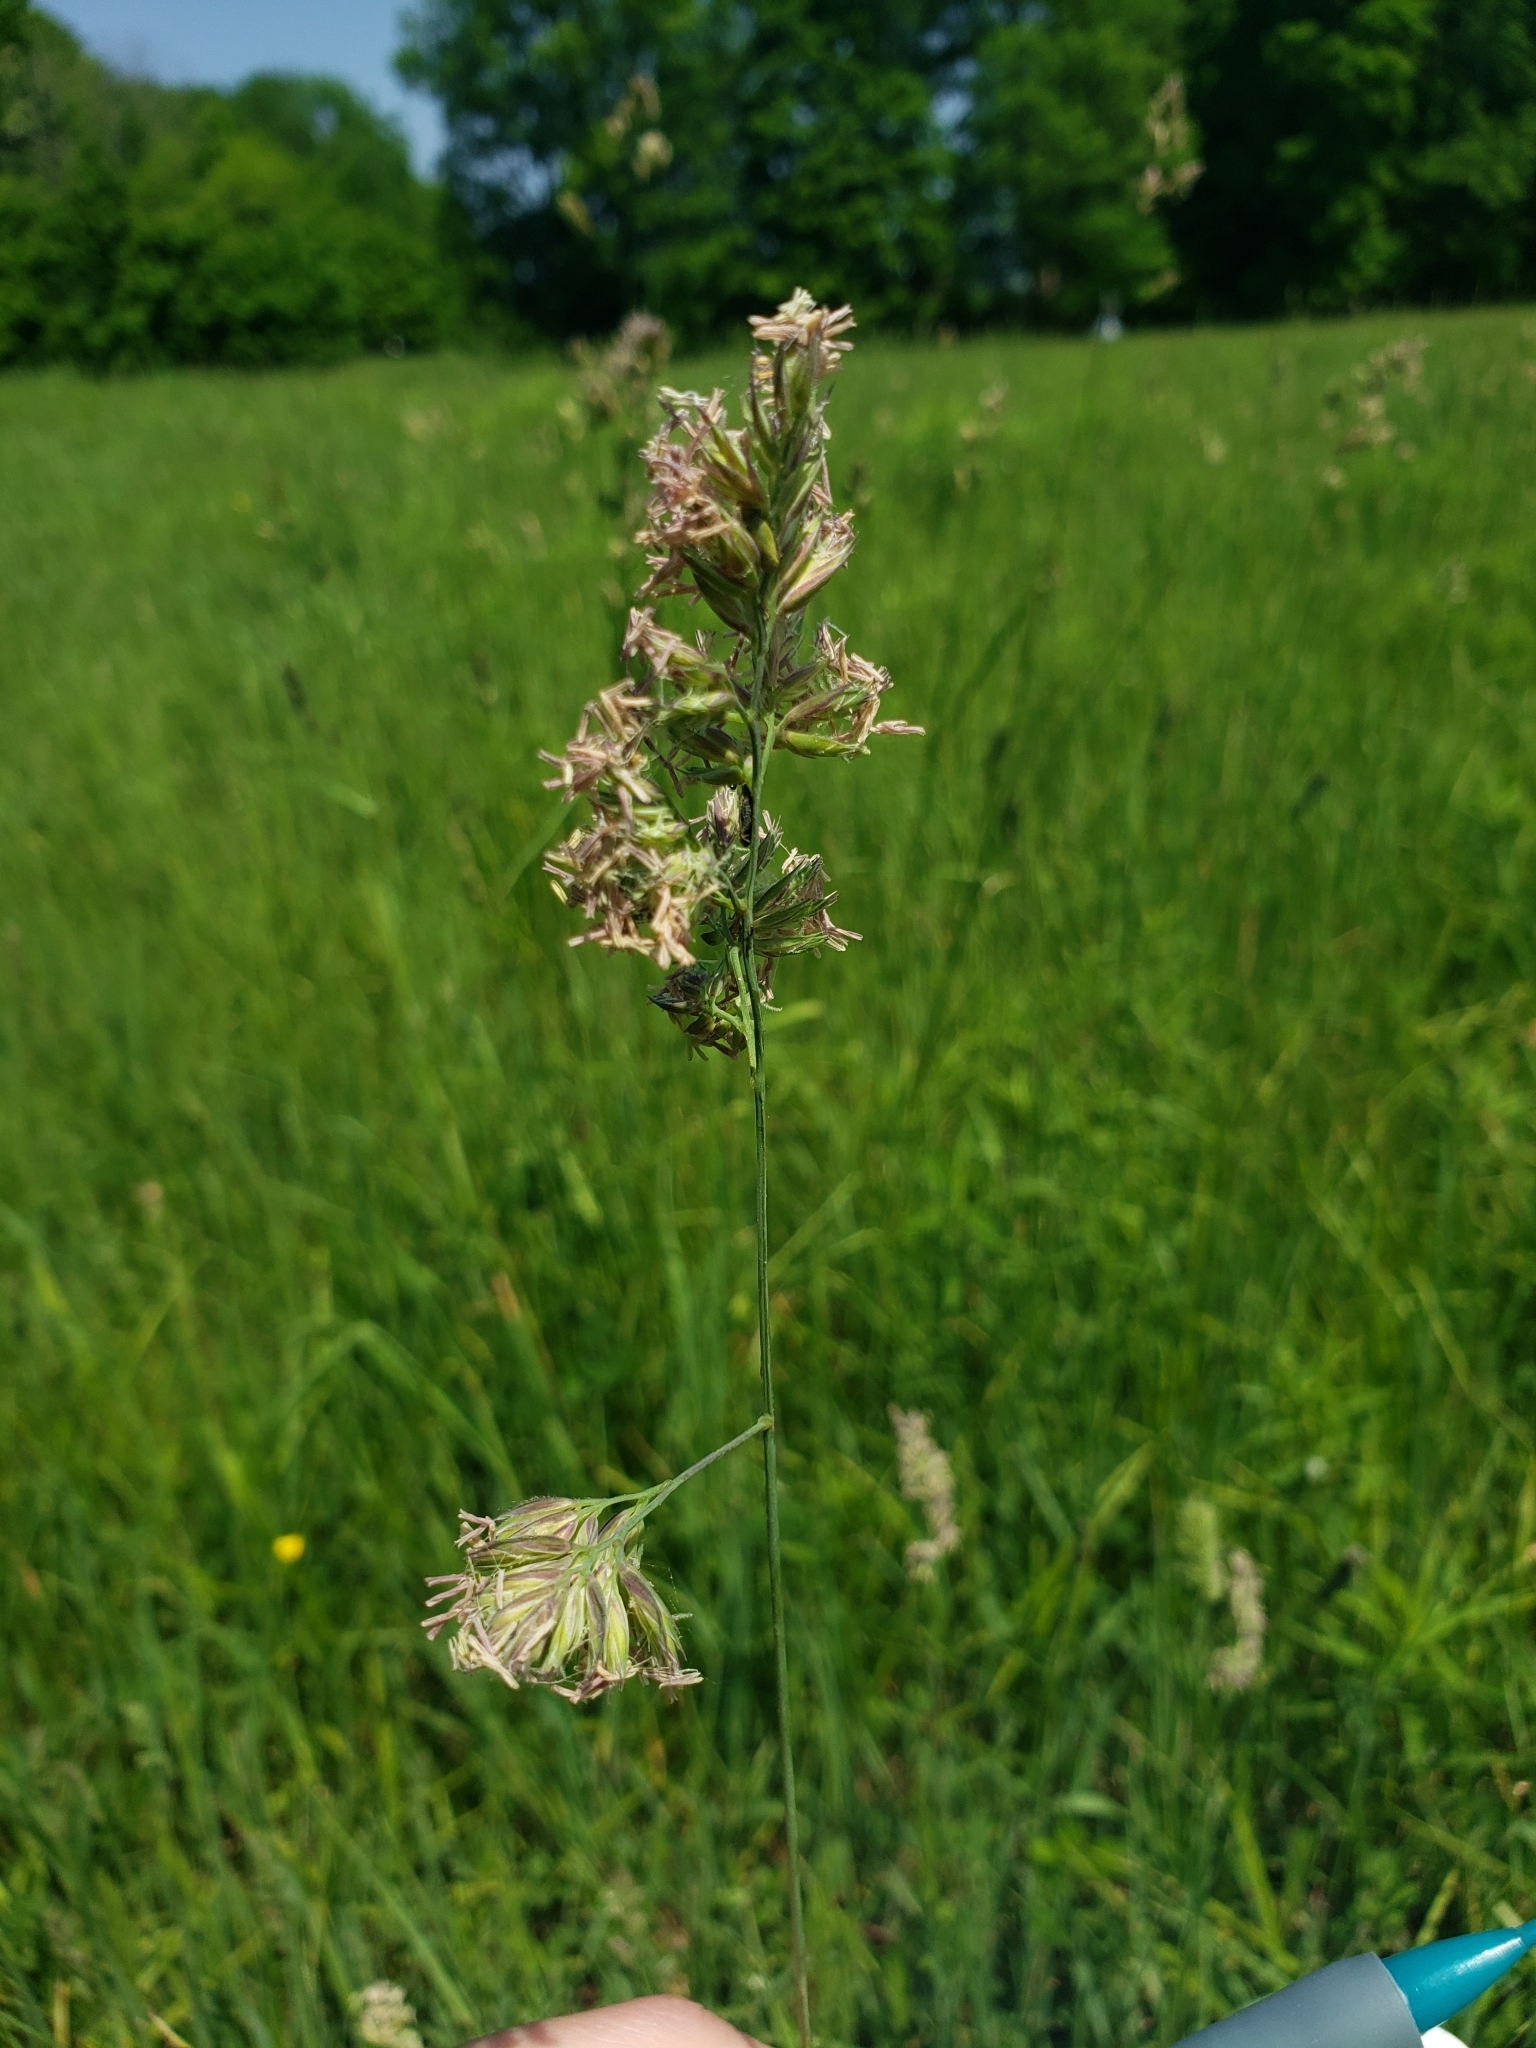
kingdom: Plantae
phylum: Tracheophyta
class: Liliopsida
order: Poales
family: Poaceae
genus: Dactylis
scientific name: Dactylis glomerata
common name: Orchardgrass
